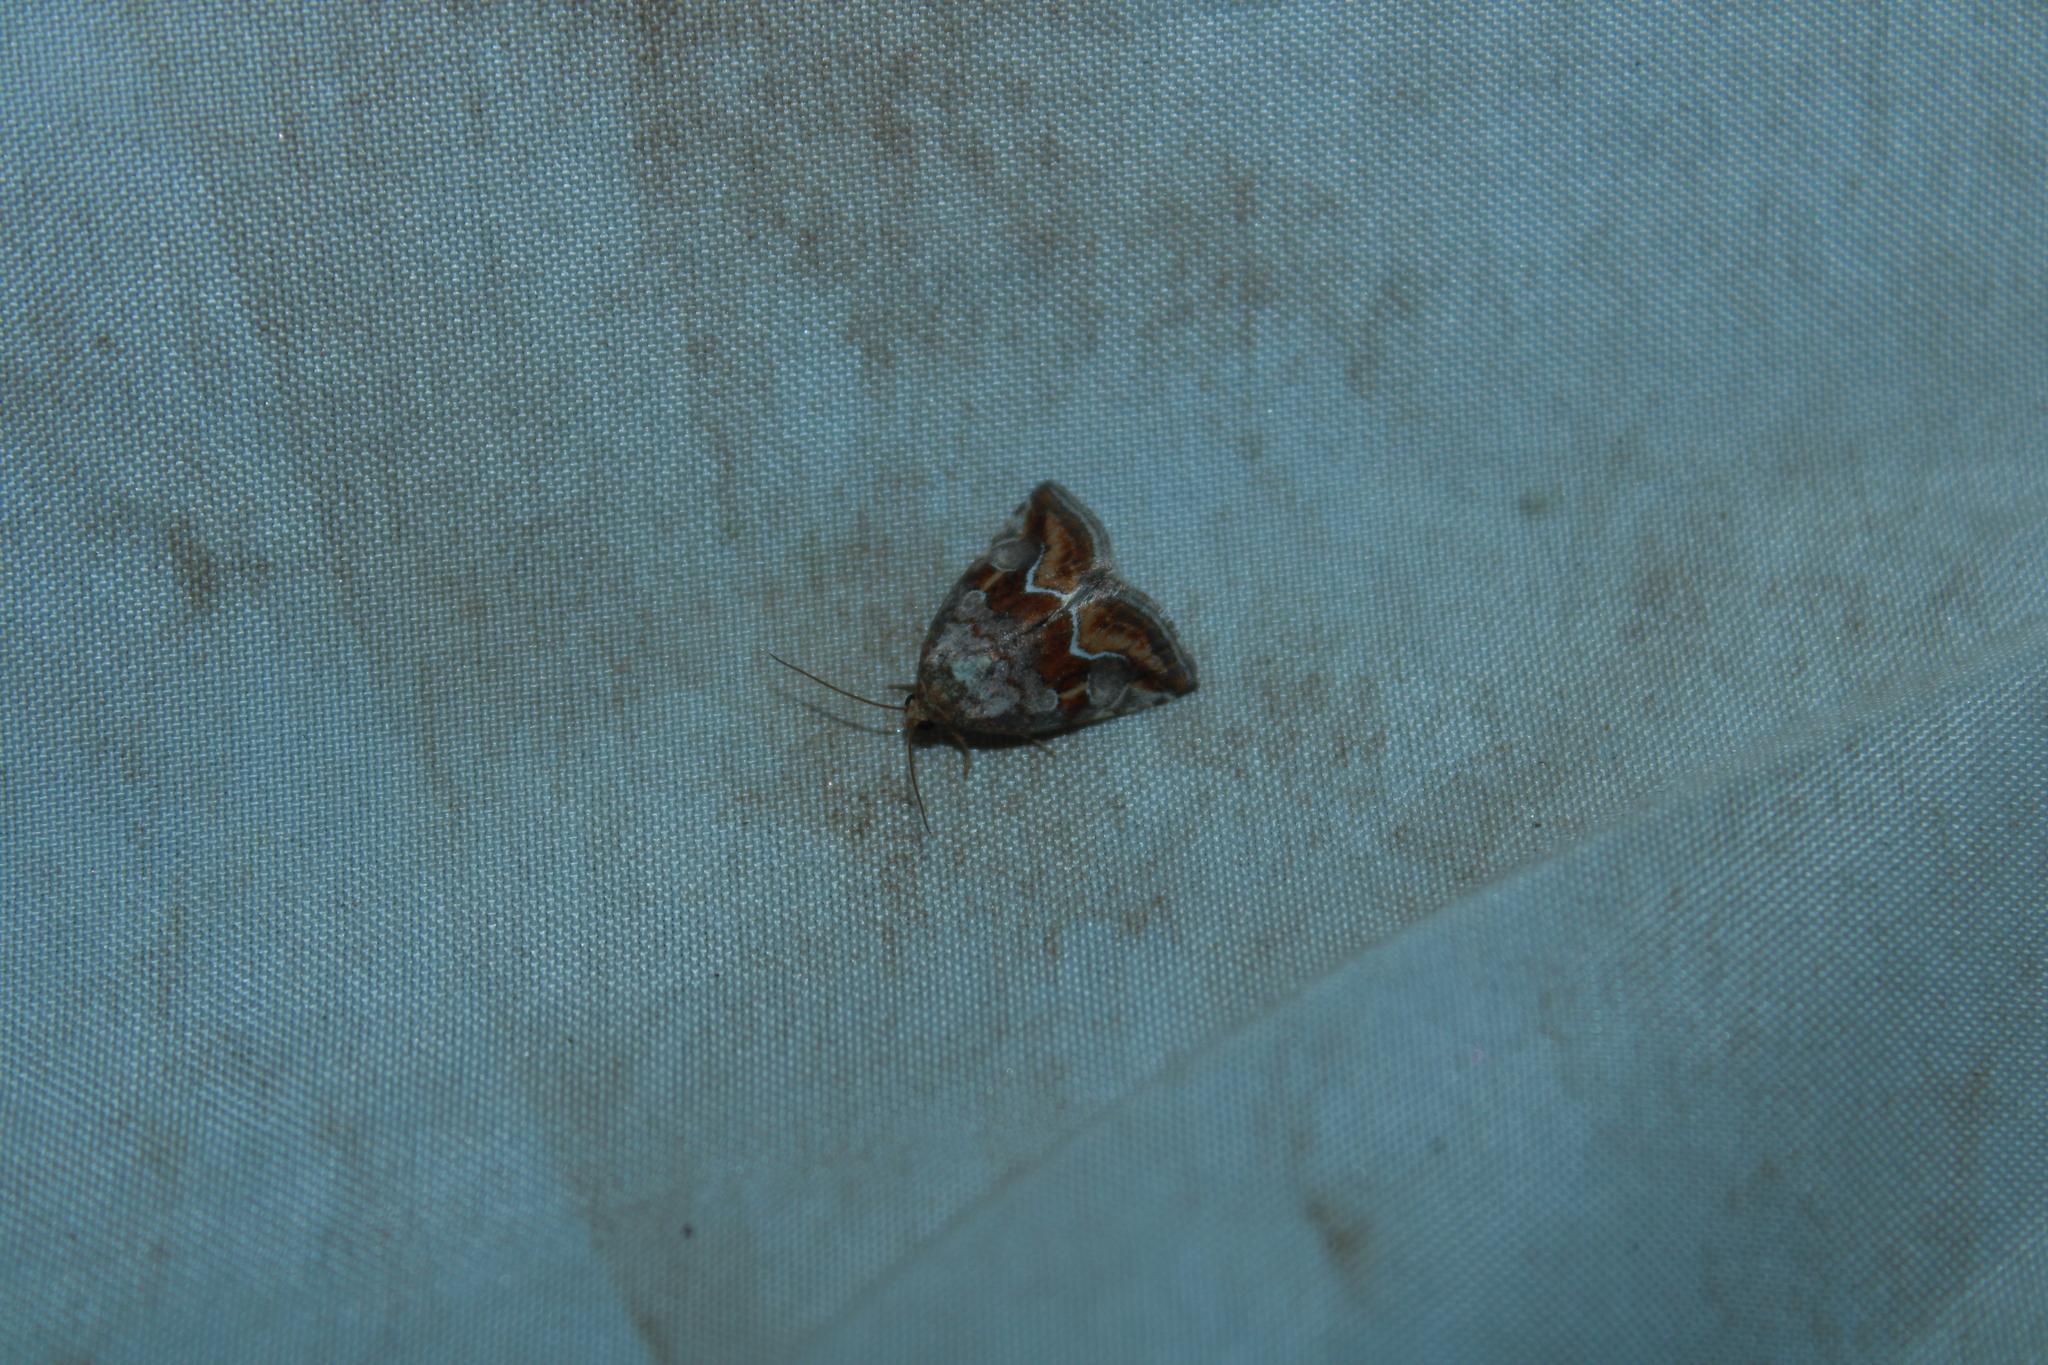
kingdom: Animalia
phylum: Arthropoda
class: Insecta
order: Lepidoptera
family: Noctuidae
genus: Deltote
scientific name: Deltote bellicula
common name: Bog glyph
